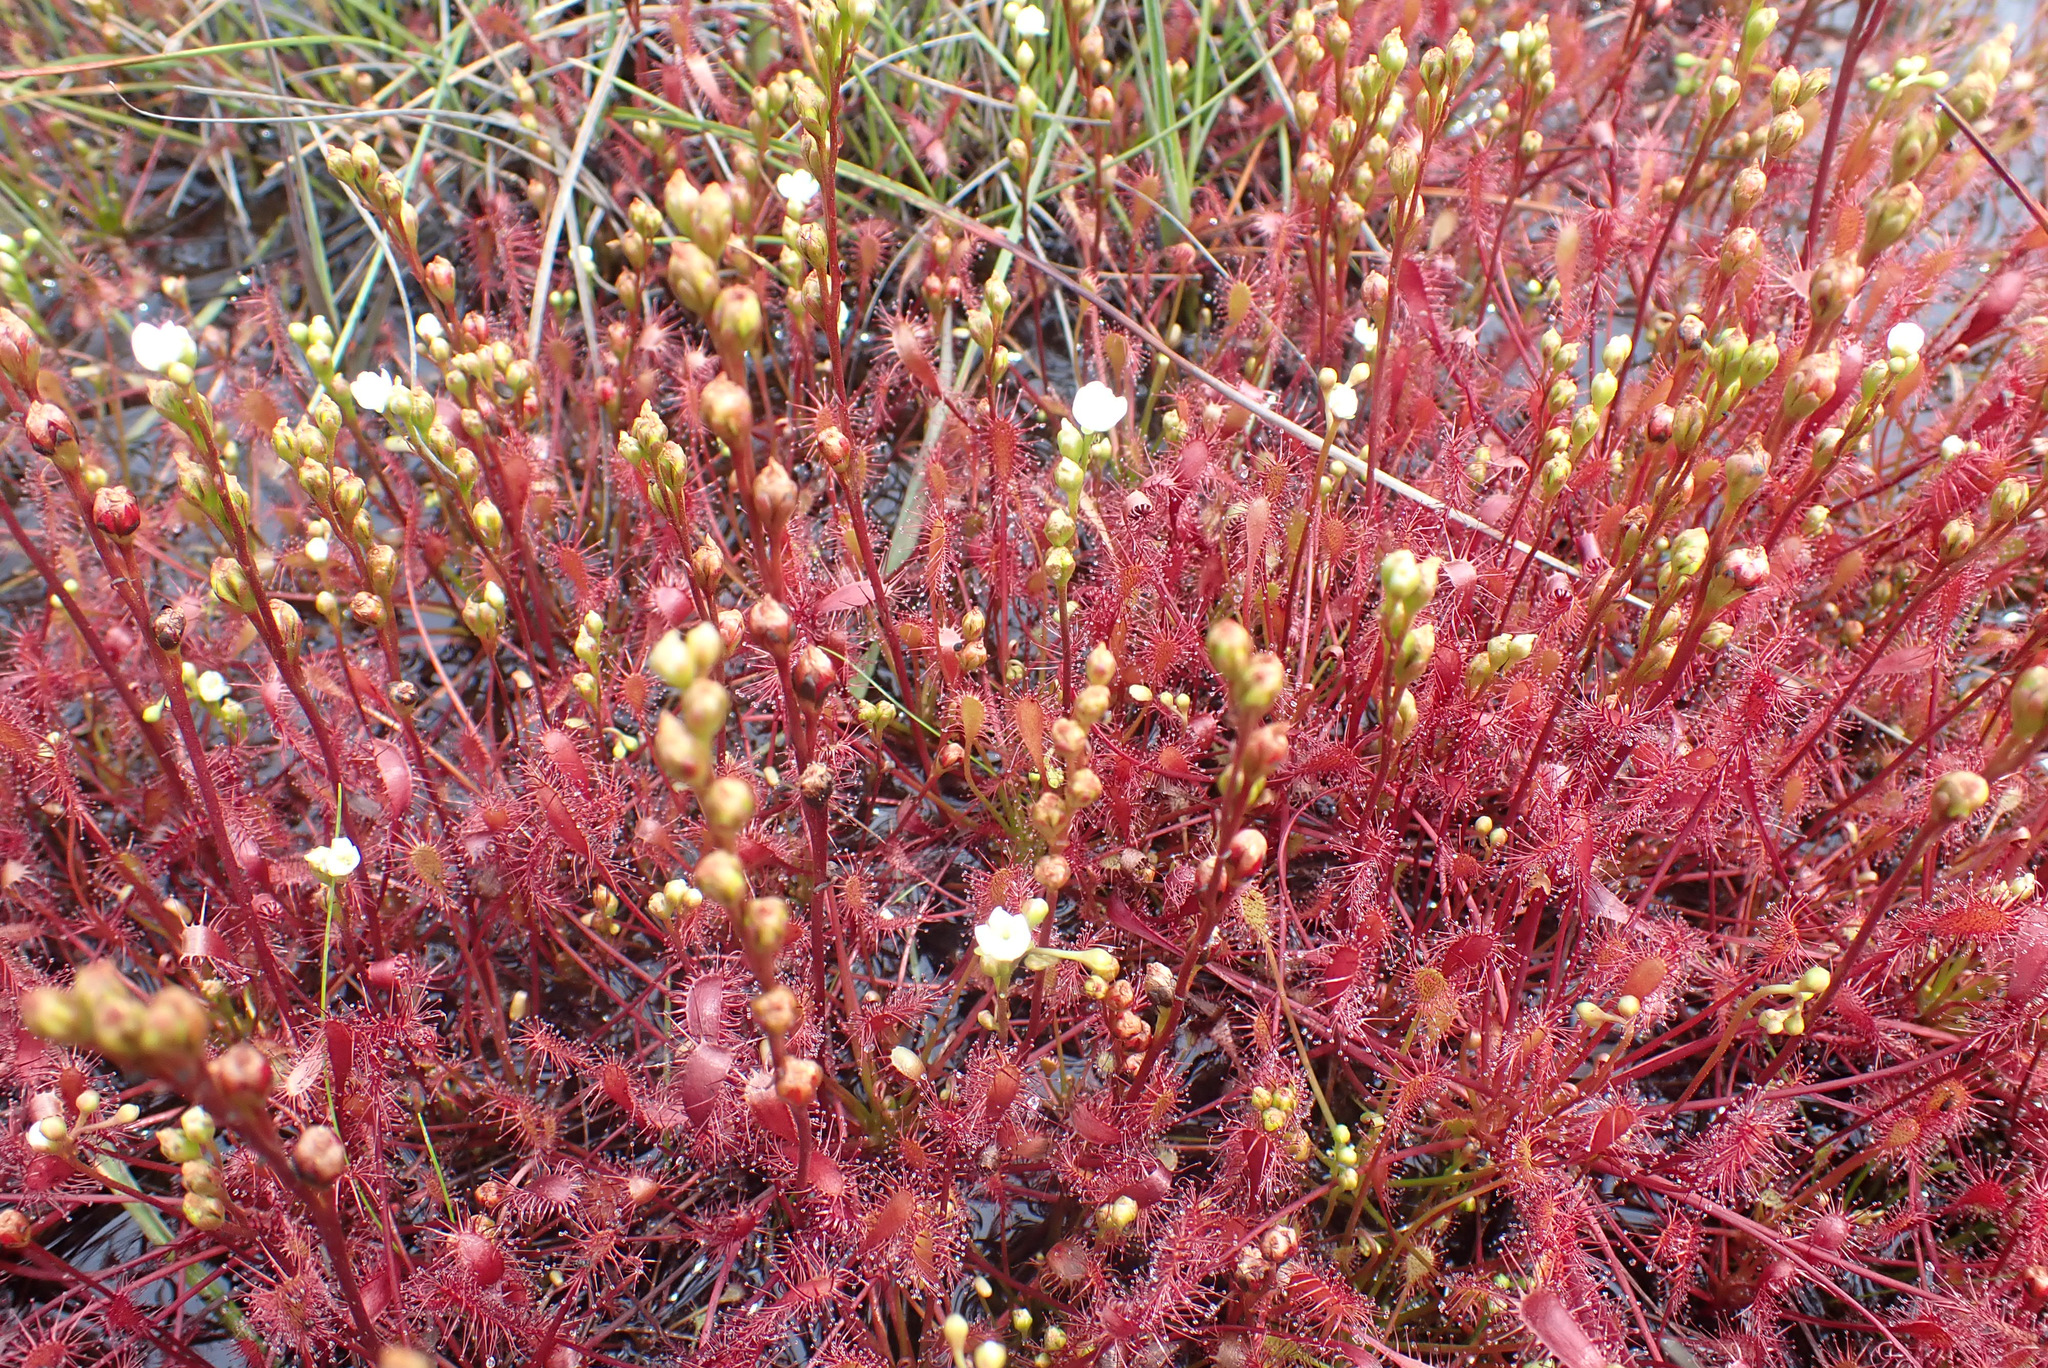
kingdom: Plantae
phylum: Tracheophyta
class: Magnoliopsida
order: Caryophyllales
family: Droseraceae
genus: Drosera
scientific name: Drosera intermedia
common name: Oblong-leaved sundew
